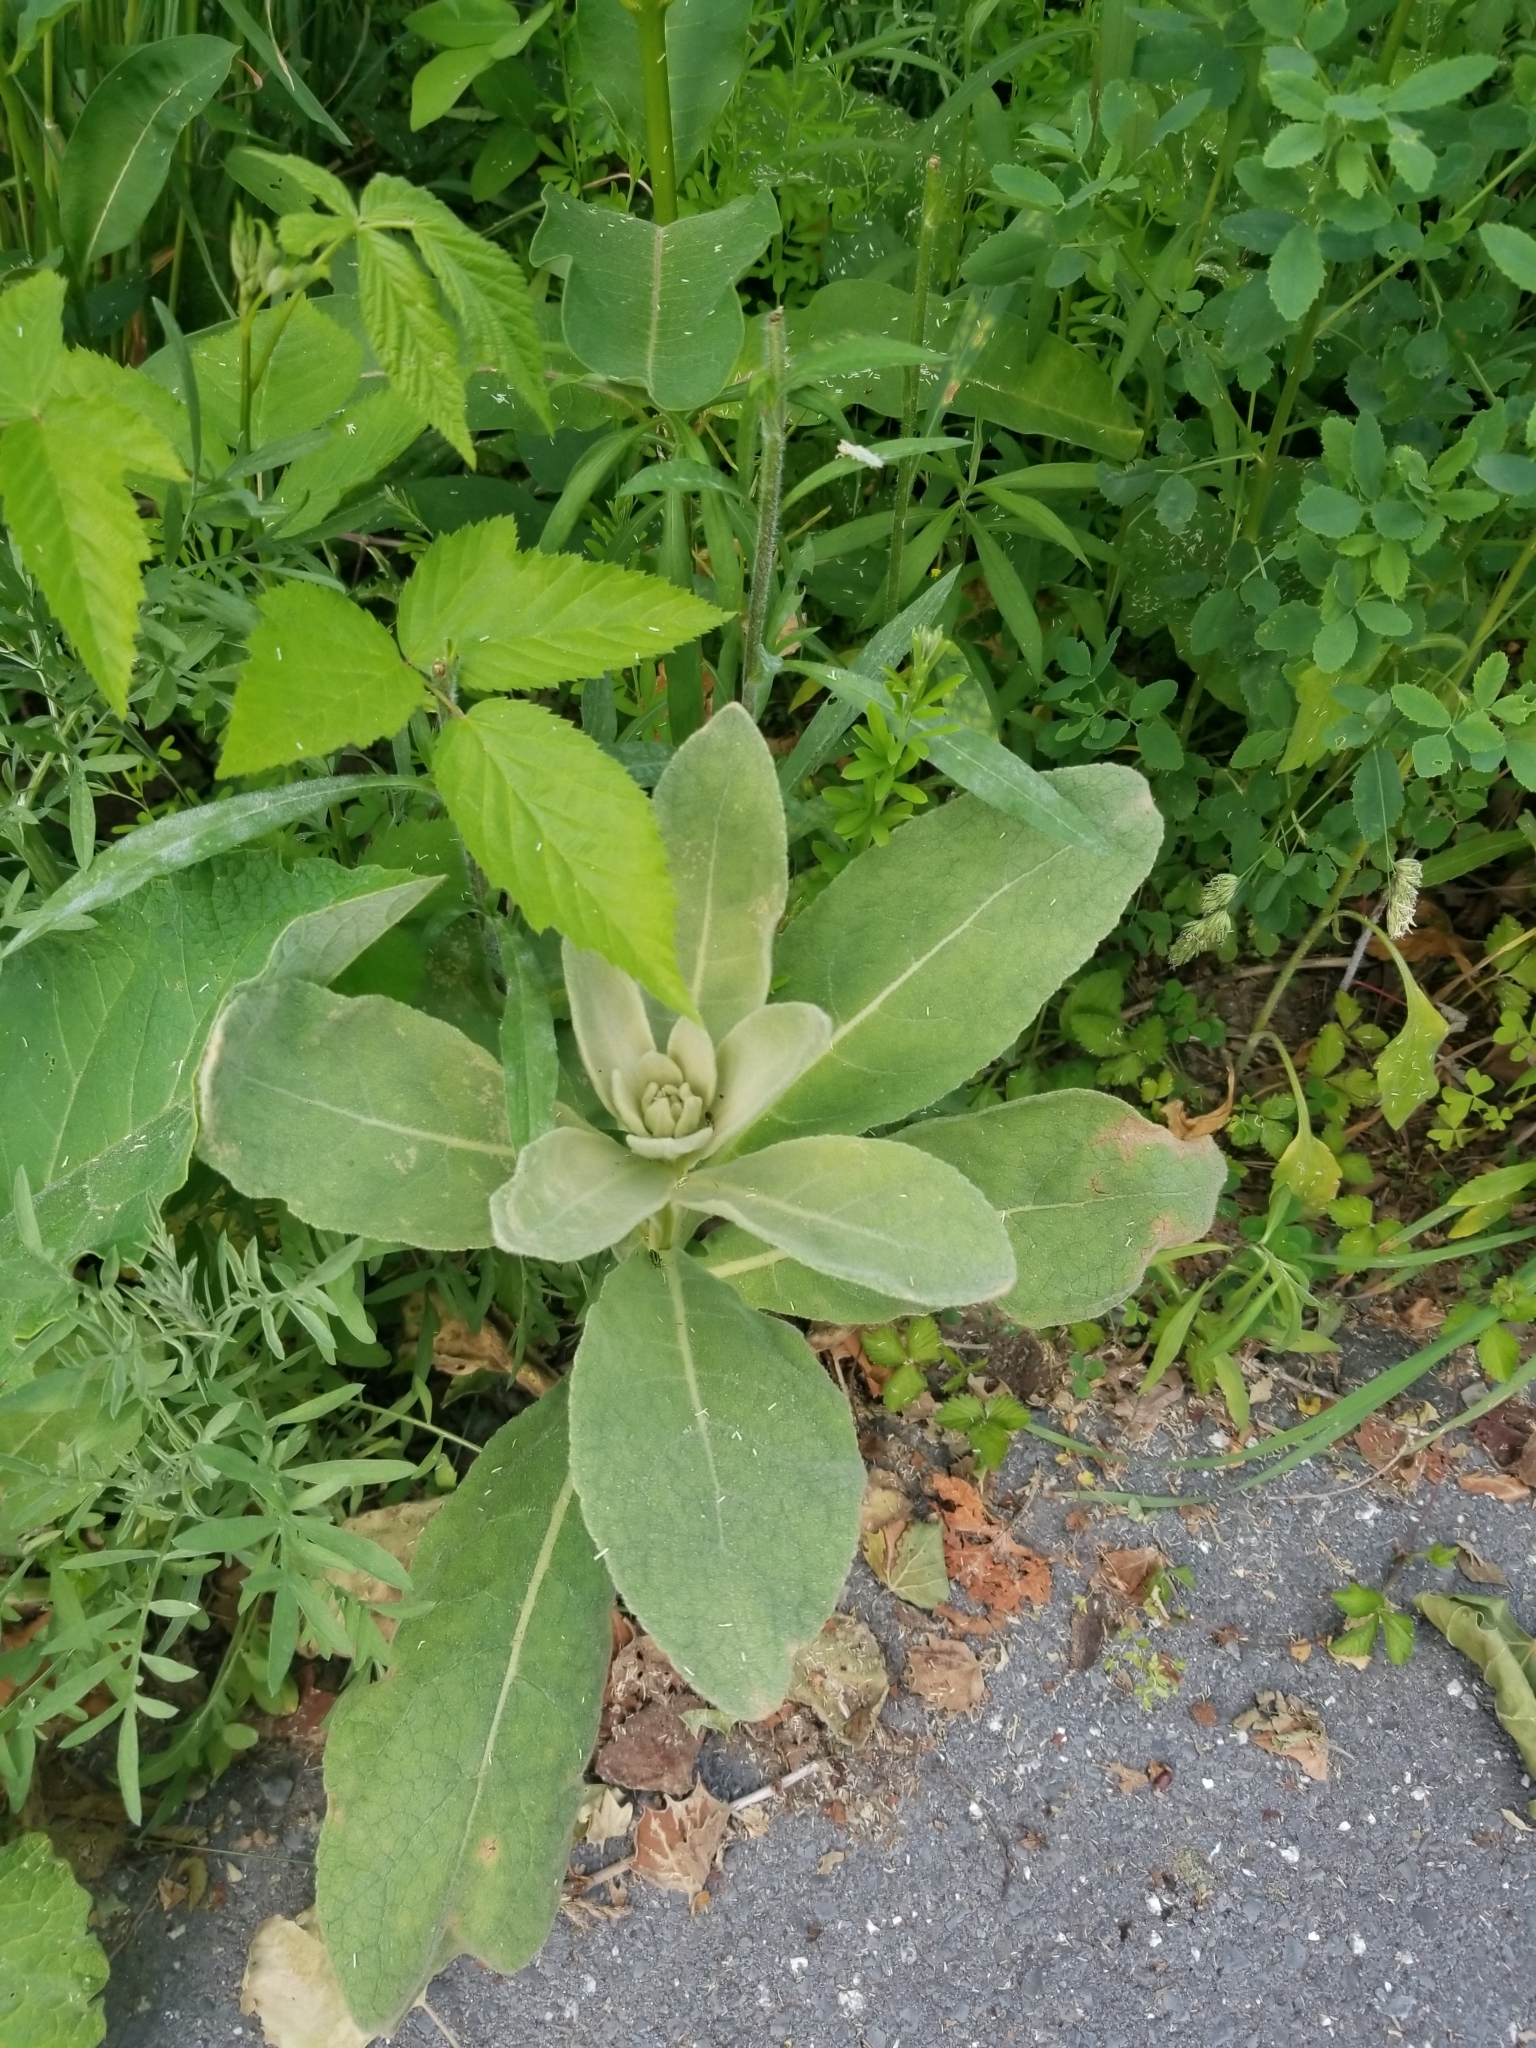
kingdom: Plantae
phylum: Tracheophyta
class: Magnoliopsida
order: Lamiales
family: Scrophulariaceae
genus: Verbascum
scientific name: Verbascum thapsus
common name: Common mullein
